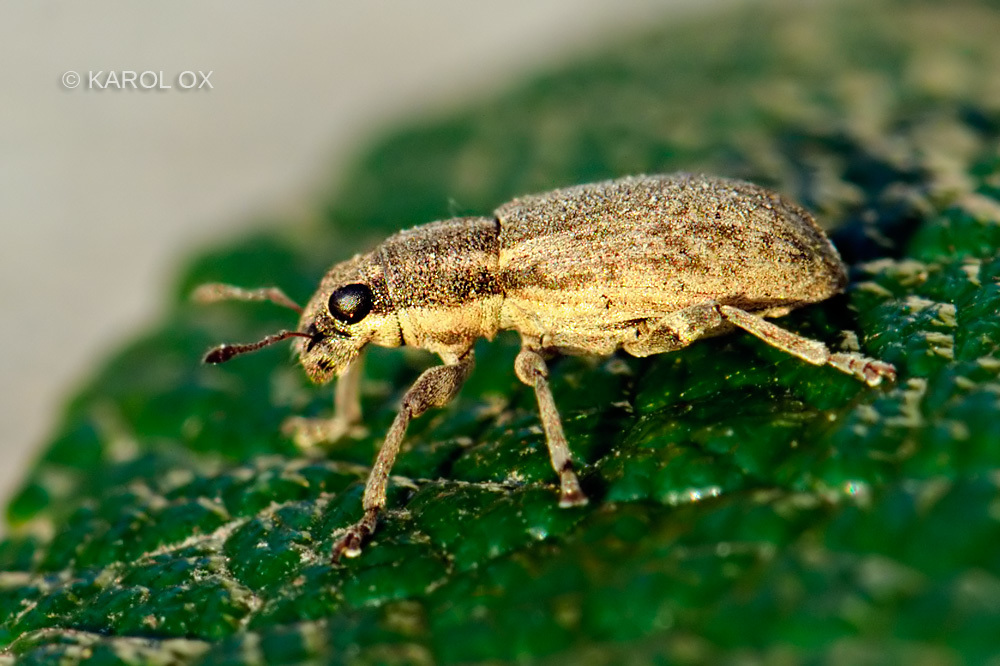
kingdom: Animalia
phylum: Arthropoda
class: Insecta
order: Coleoptera
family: Curculionidae
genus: Sitona
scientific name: Sitona humeralis
